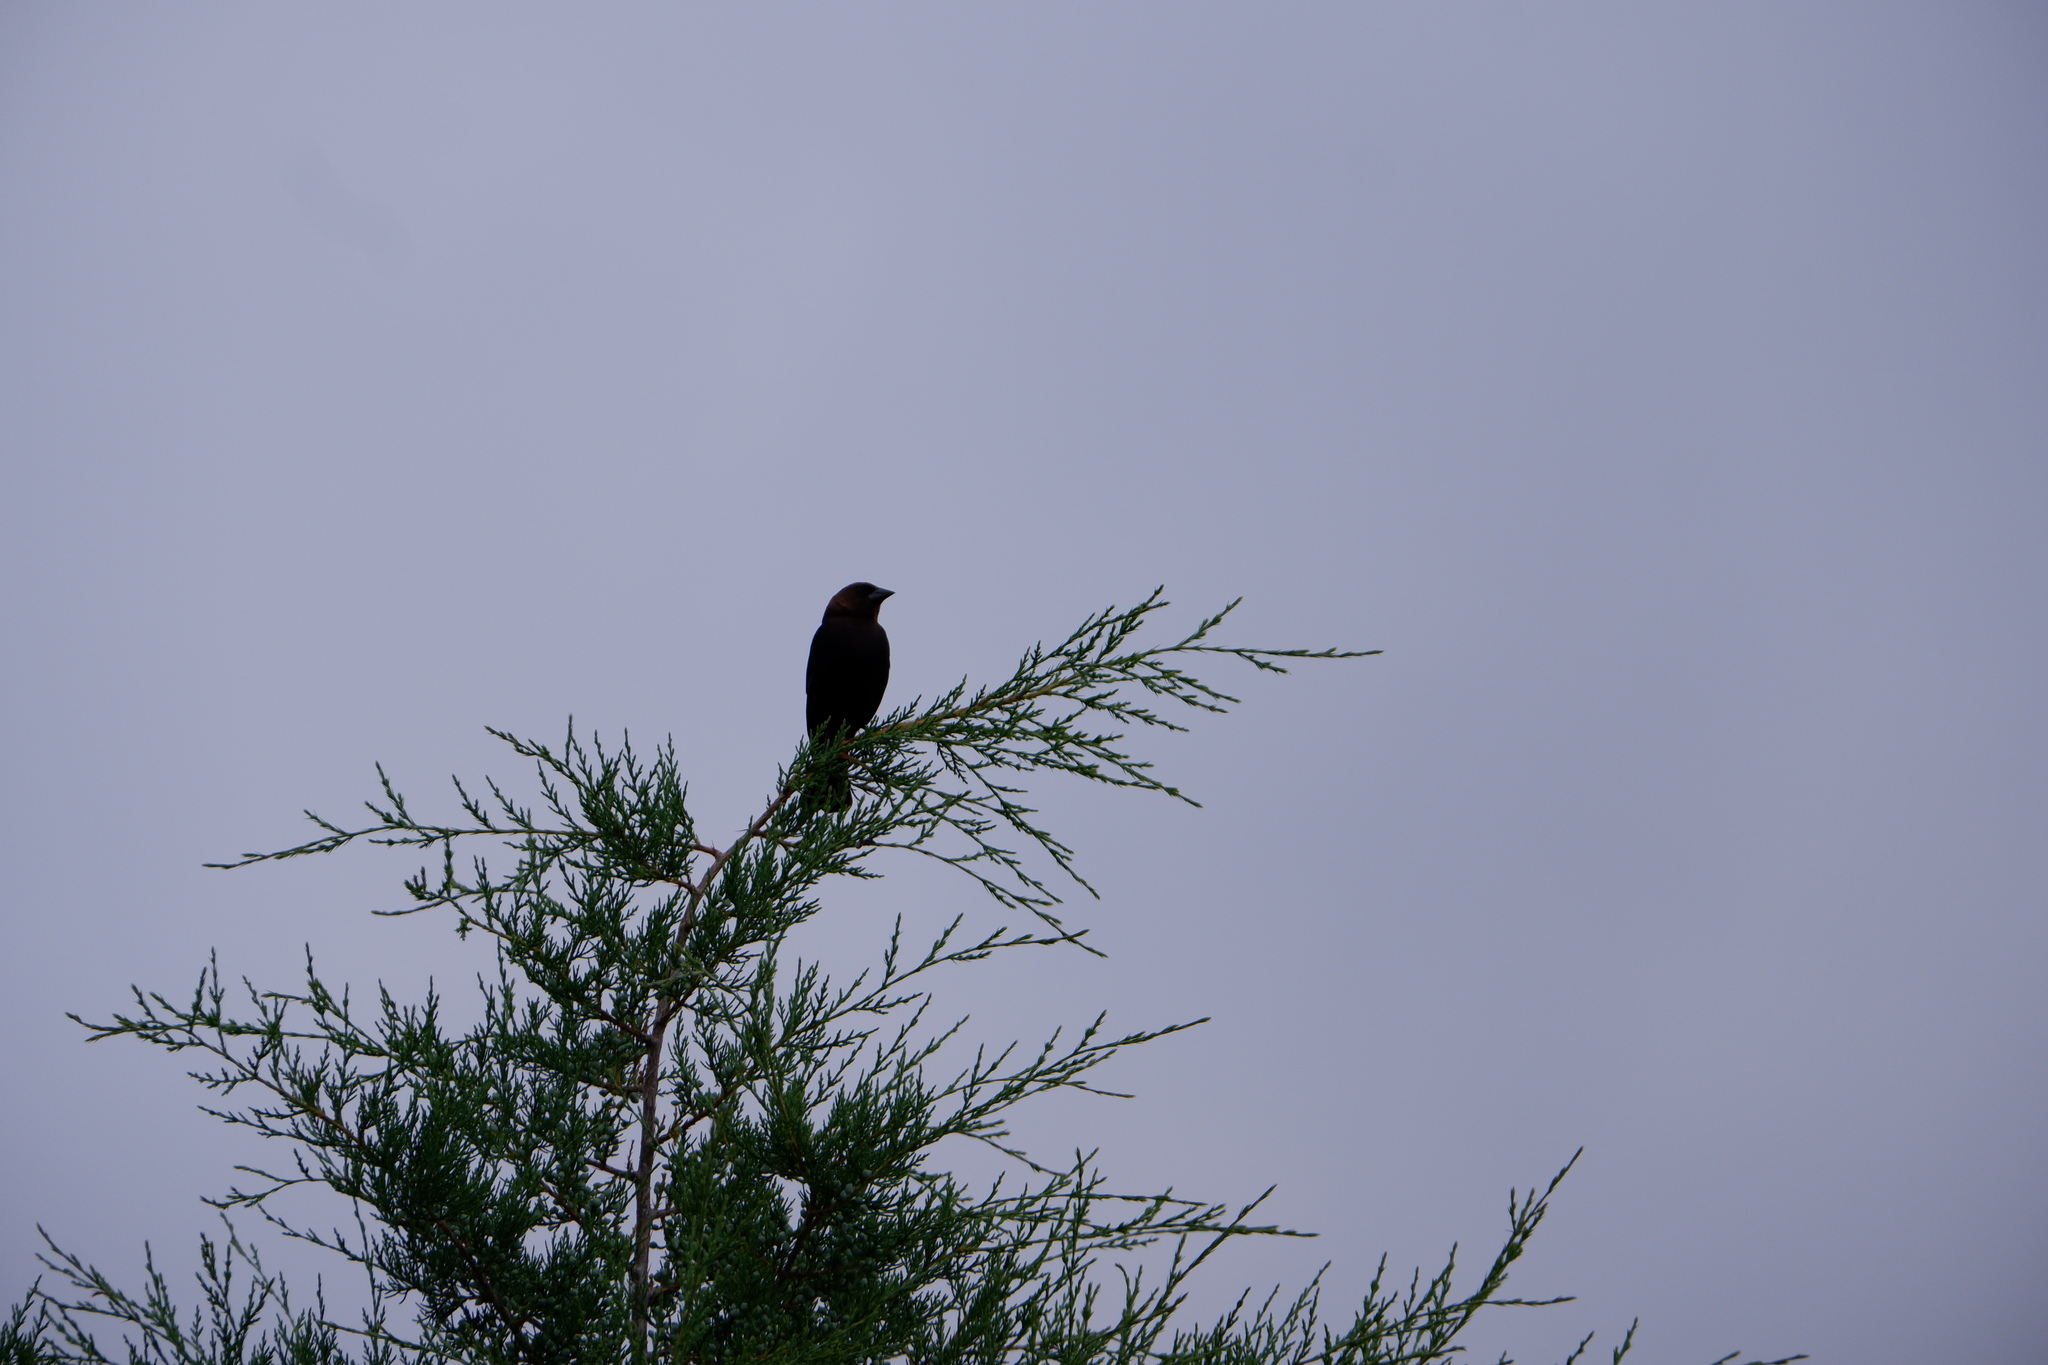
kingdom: Animalia
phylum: Chordata
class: Aves
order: Passeriformes
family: Icteridae
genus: Molothrus
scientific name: Molothrus ater
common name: Brown-headed cowbird
